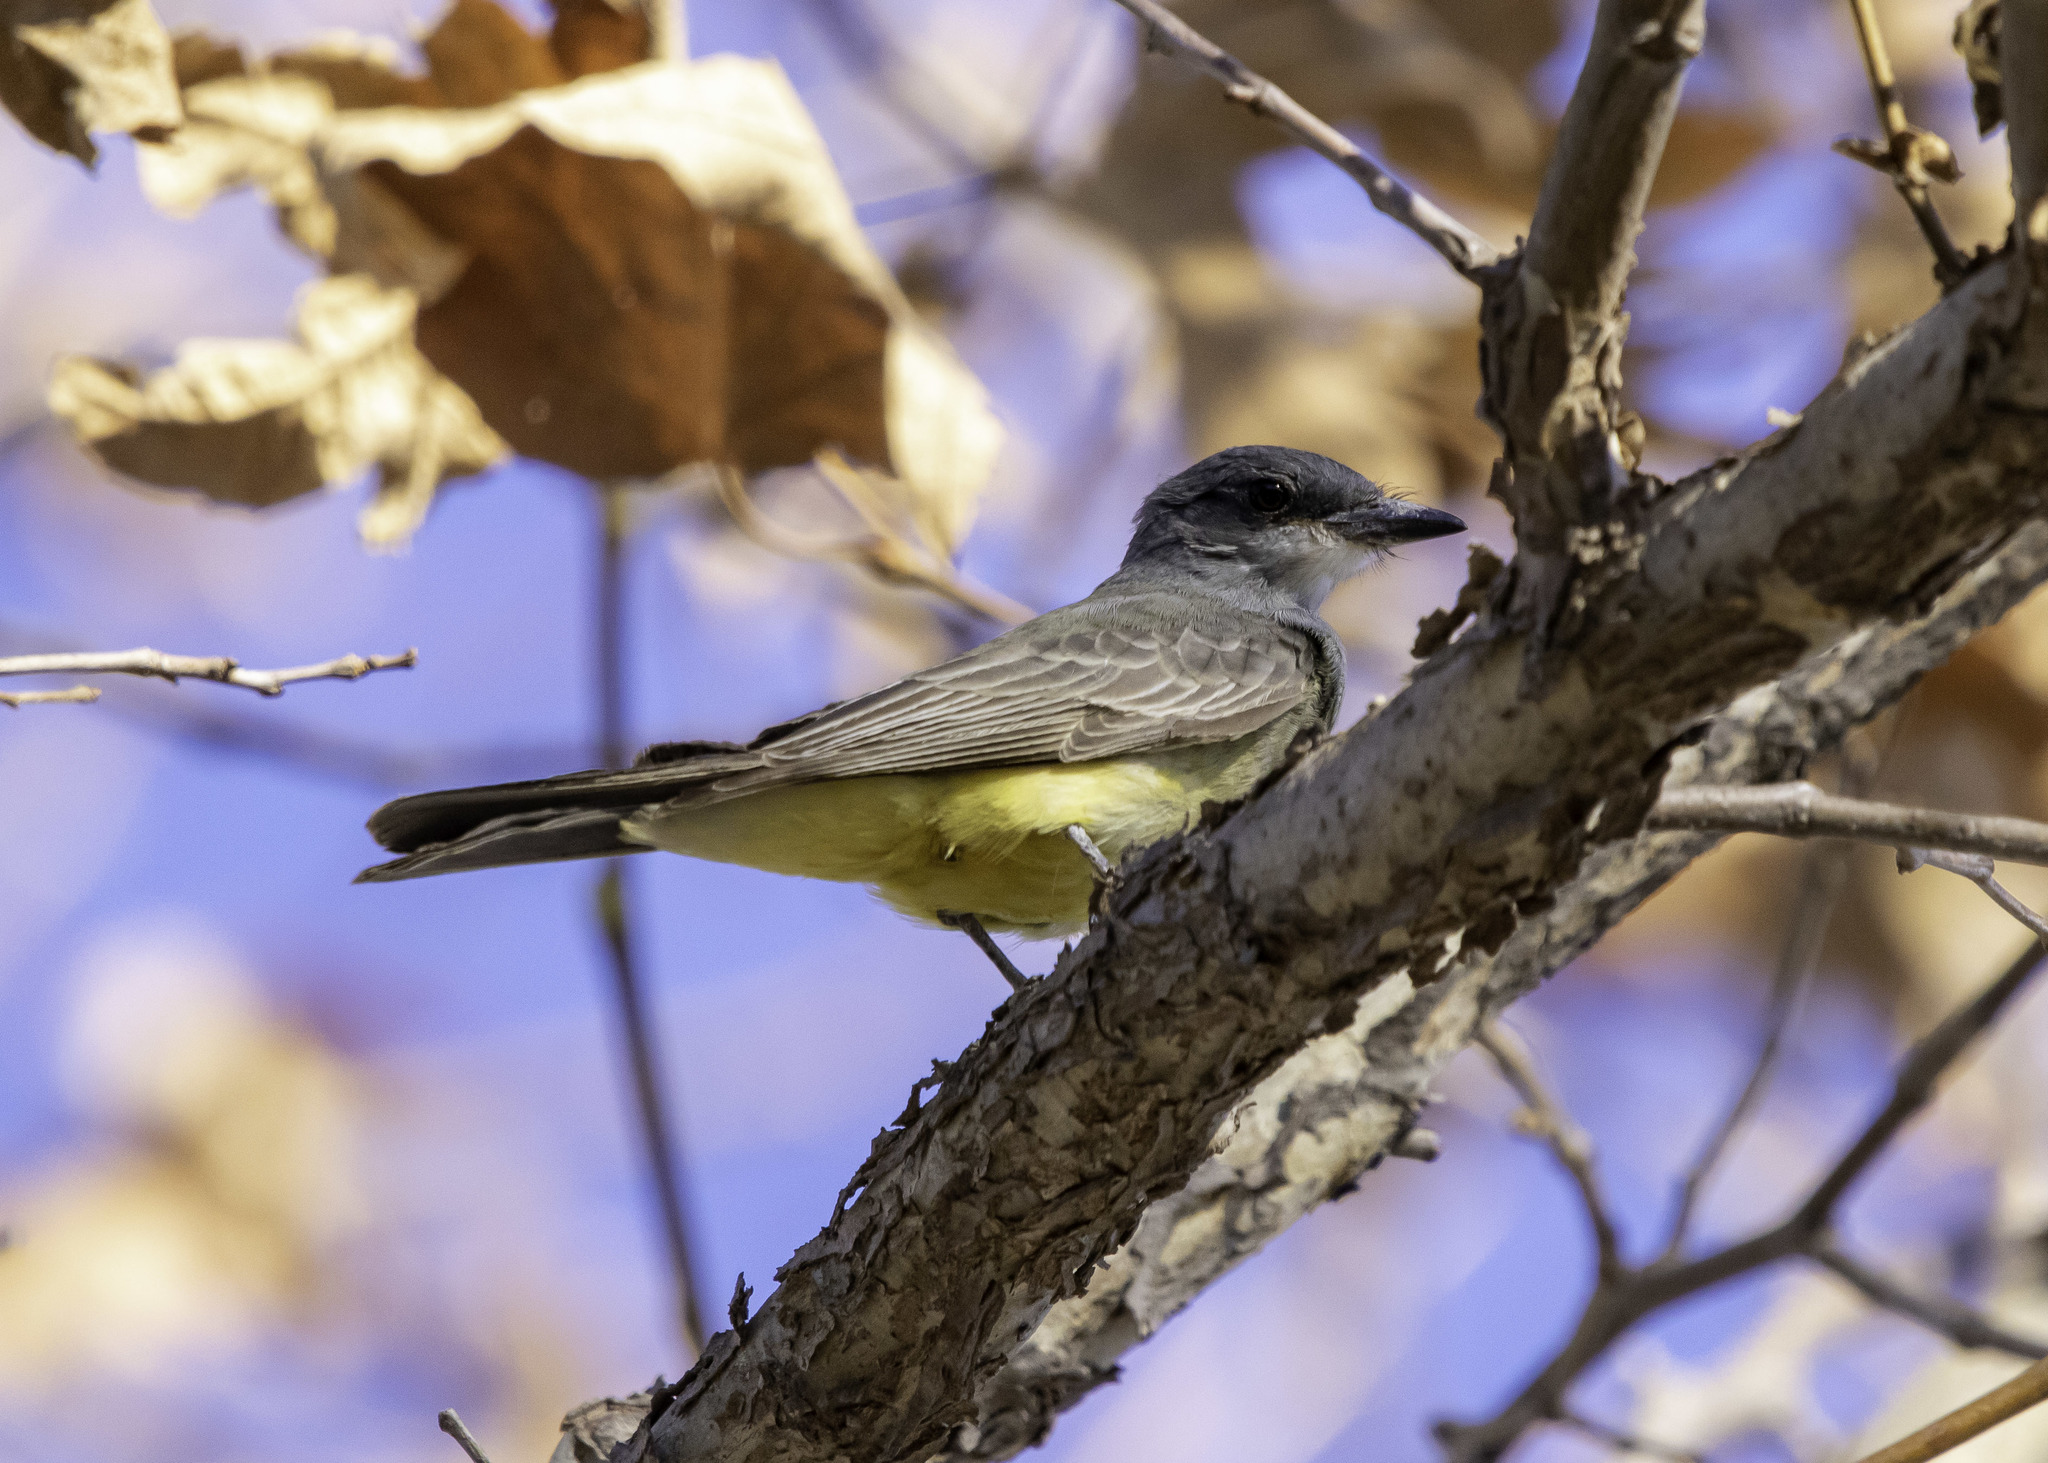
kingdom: Animalia
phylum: Chordata
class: Aves
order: Passeriformes
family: Tyrannidae
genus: Tyrannus
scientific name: Tyrannus vociferans
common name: Cassin's kingbird
